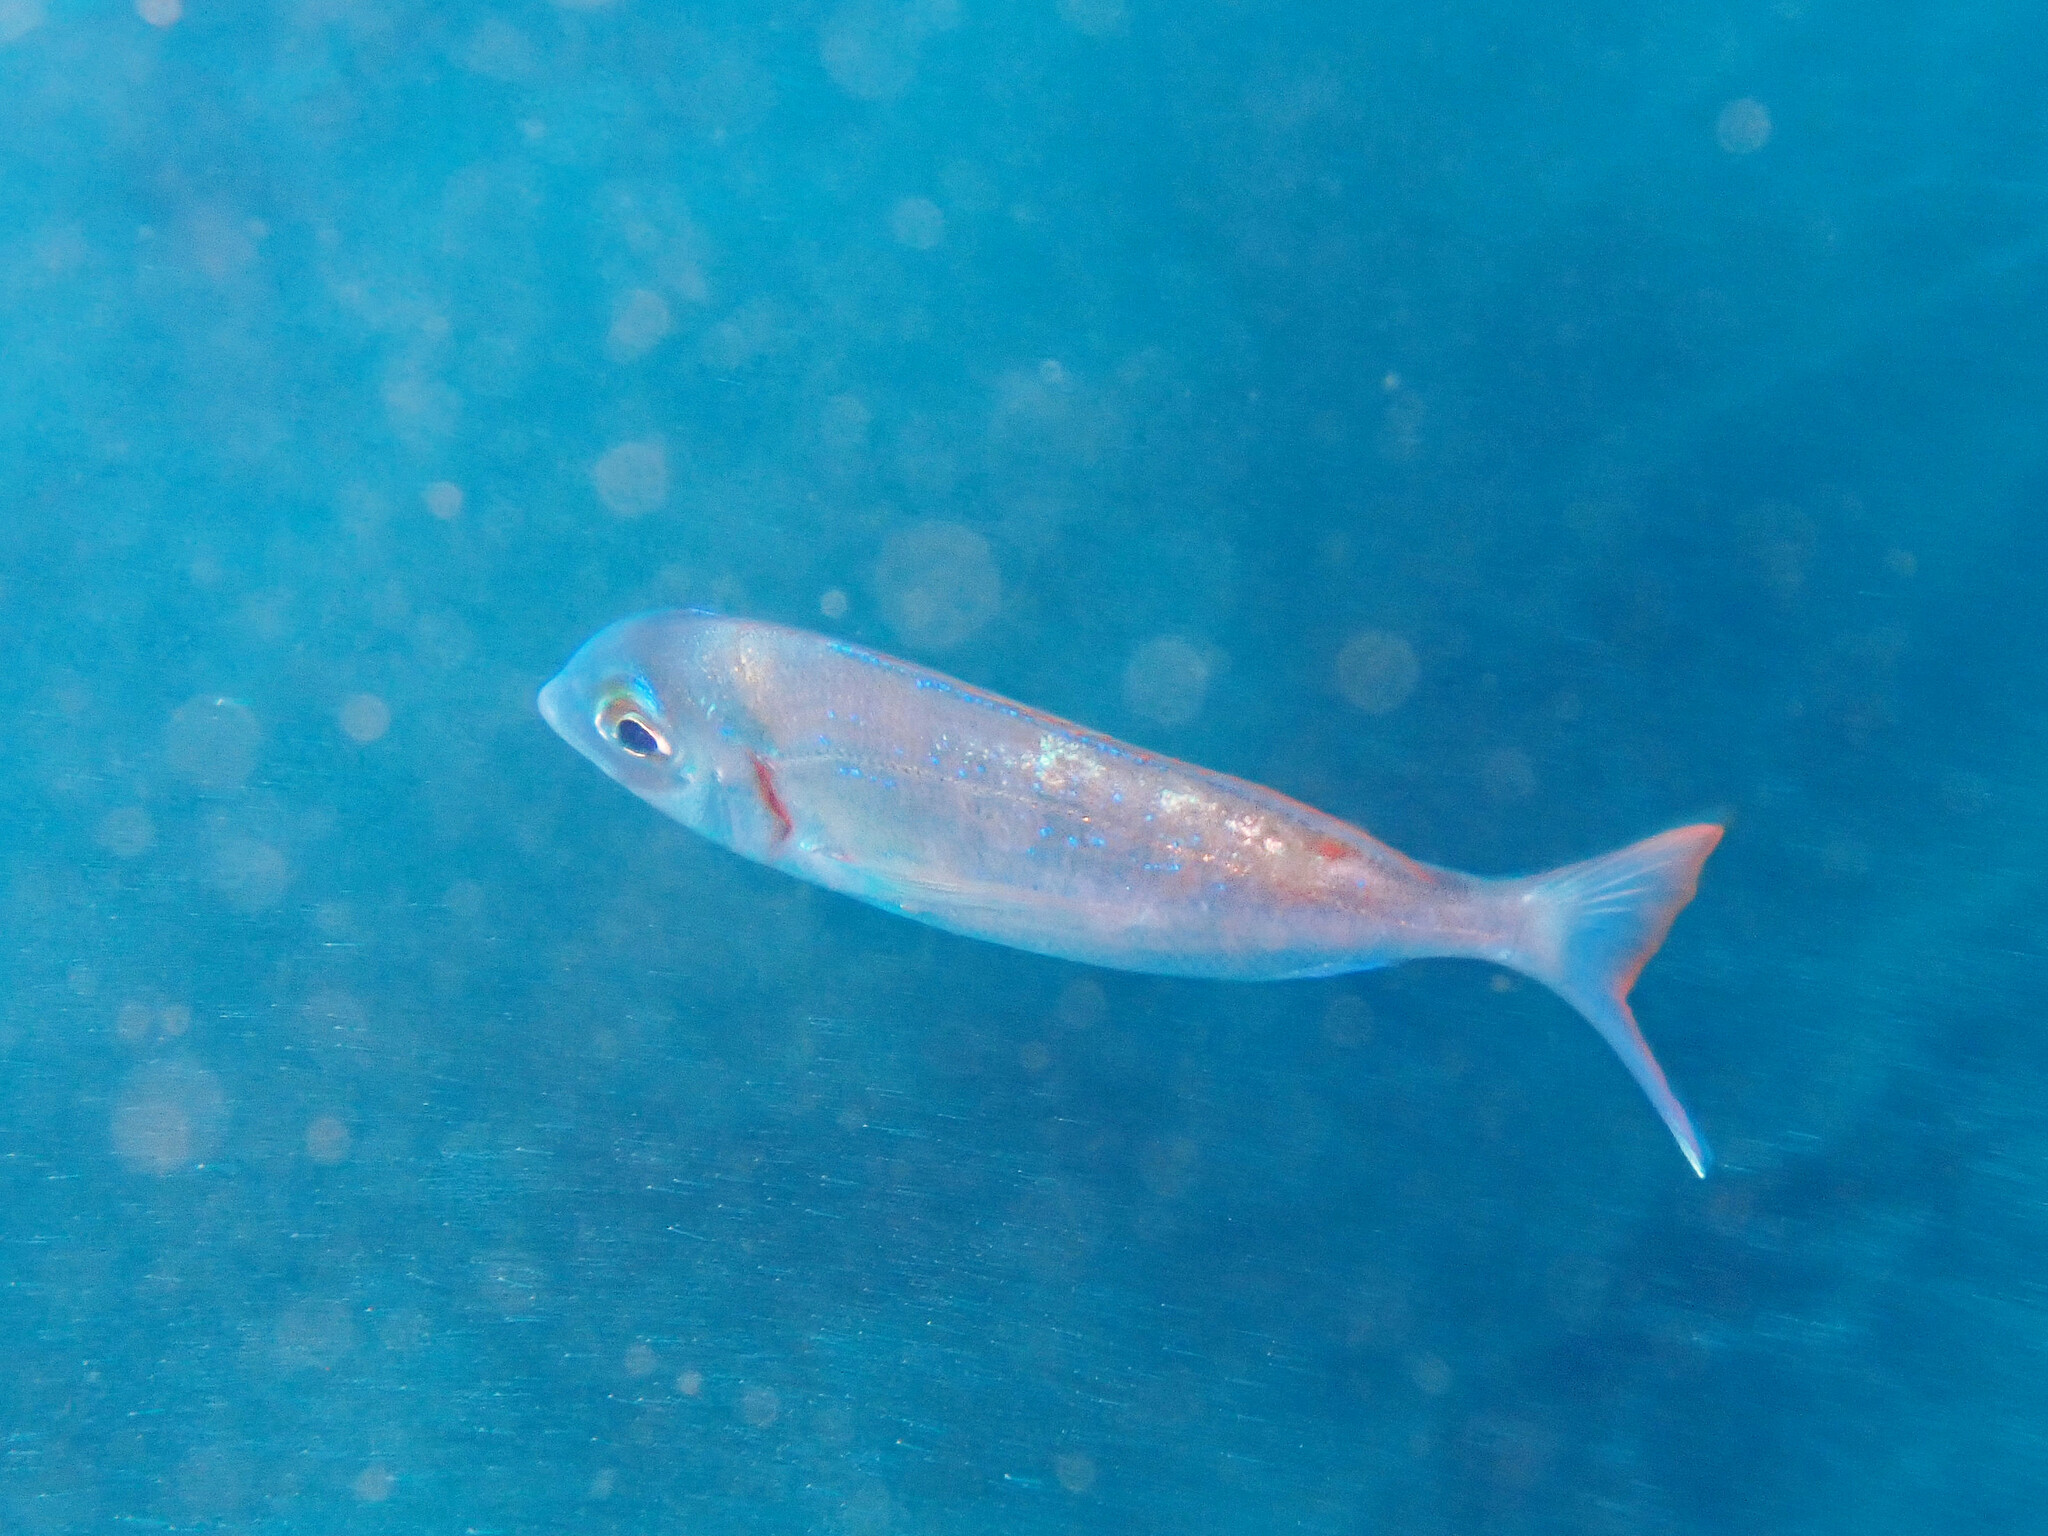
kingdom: Animalia
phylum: Chordata
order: Perciformes
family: Sparidae
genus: Pagellus
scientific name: Pagellus erythrinus
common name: Pandora
